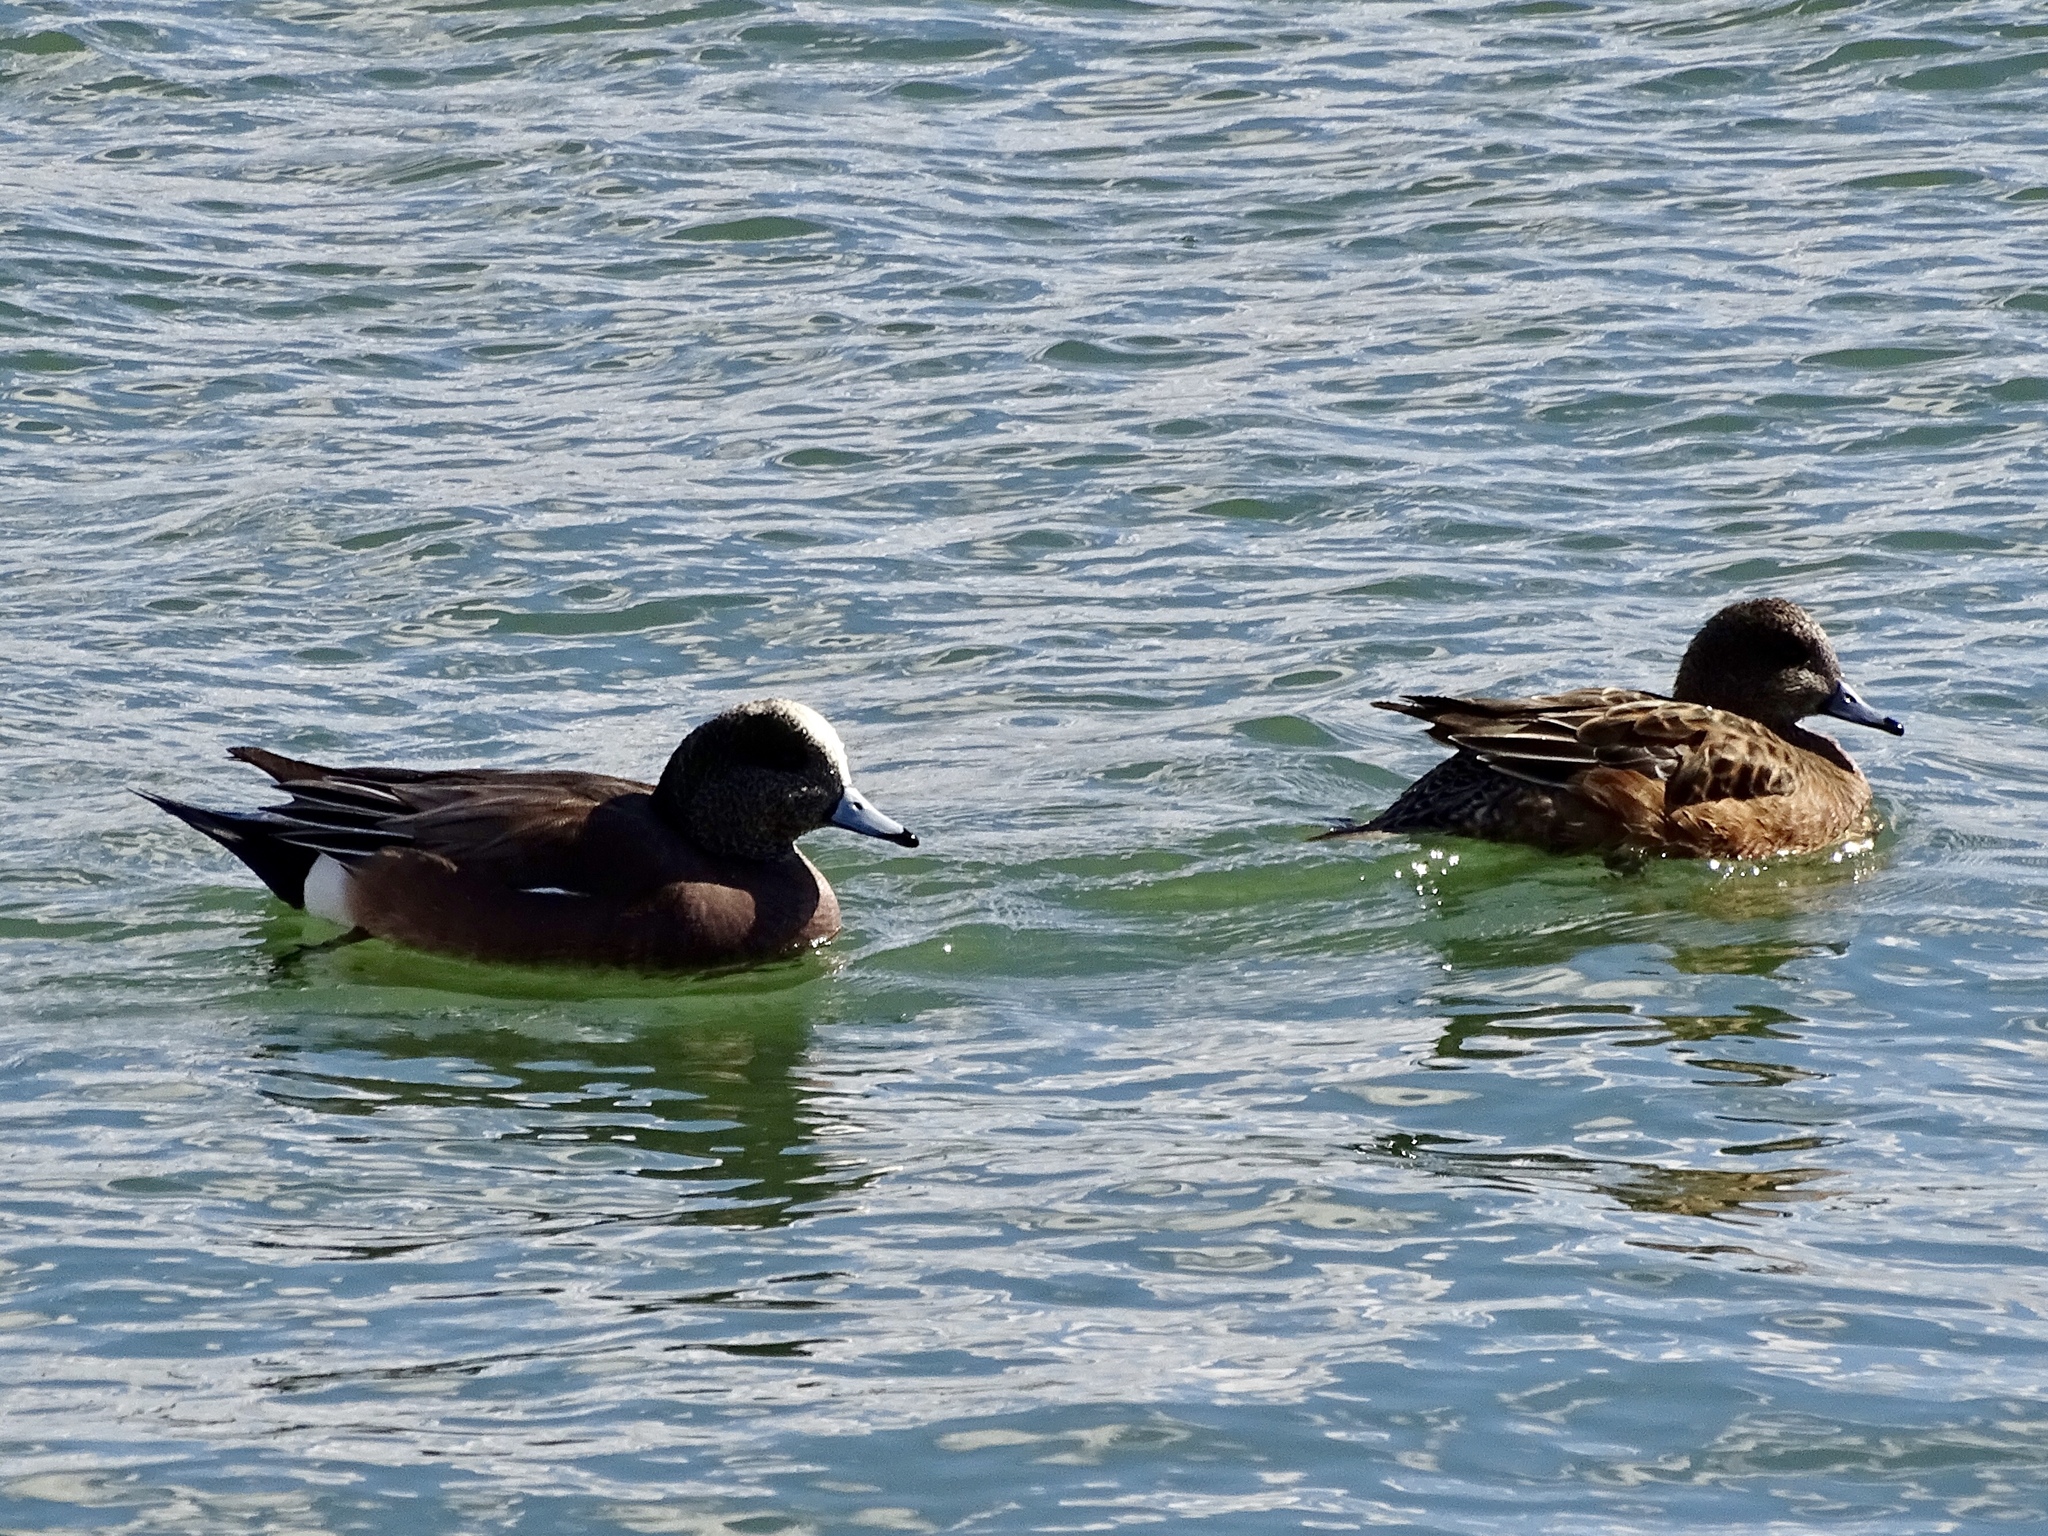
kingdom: Animalia
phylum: Chordata
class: Aves
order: Anseriformes
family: Anatidae
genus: Mareca
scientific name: Mareca americana
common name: American wigeon
